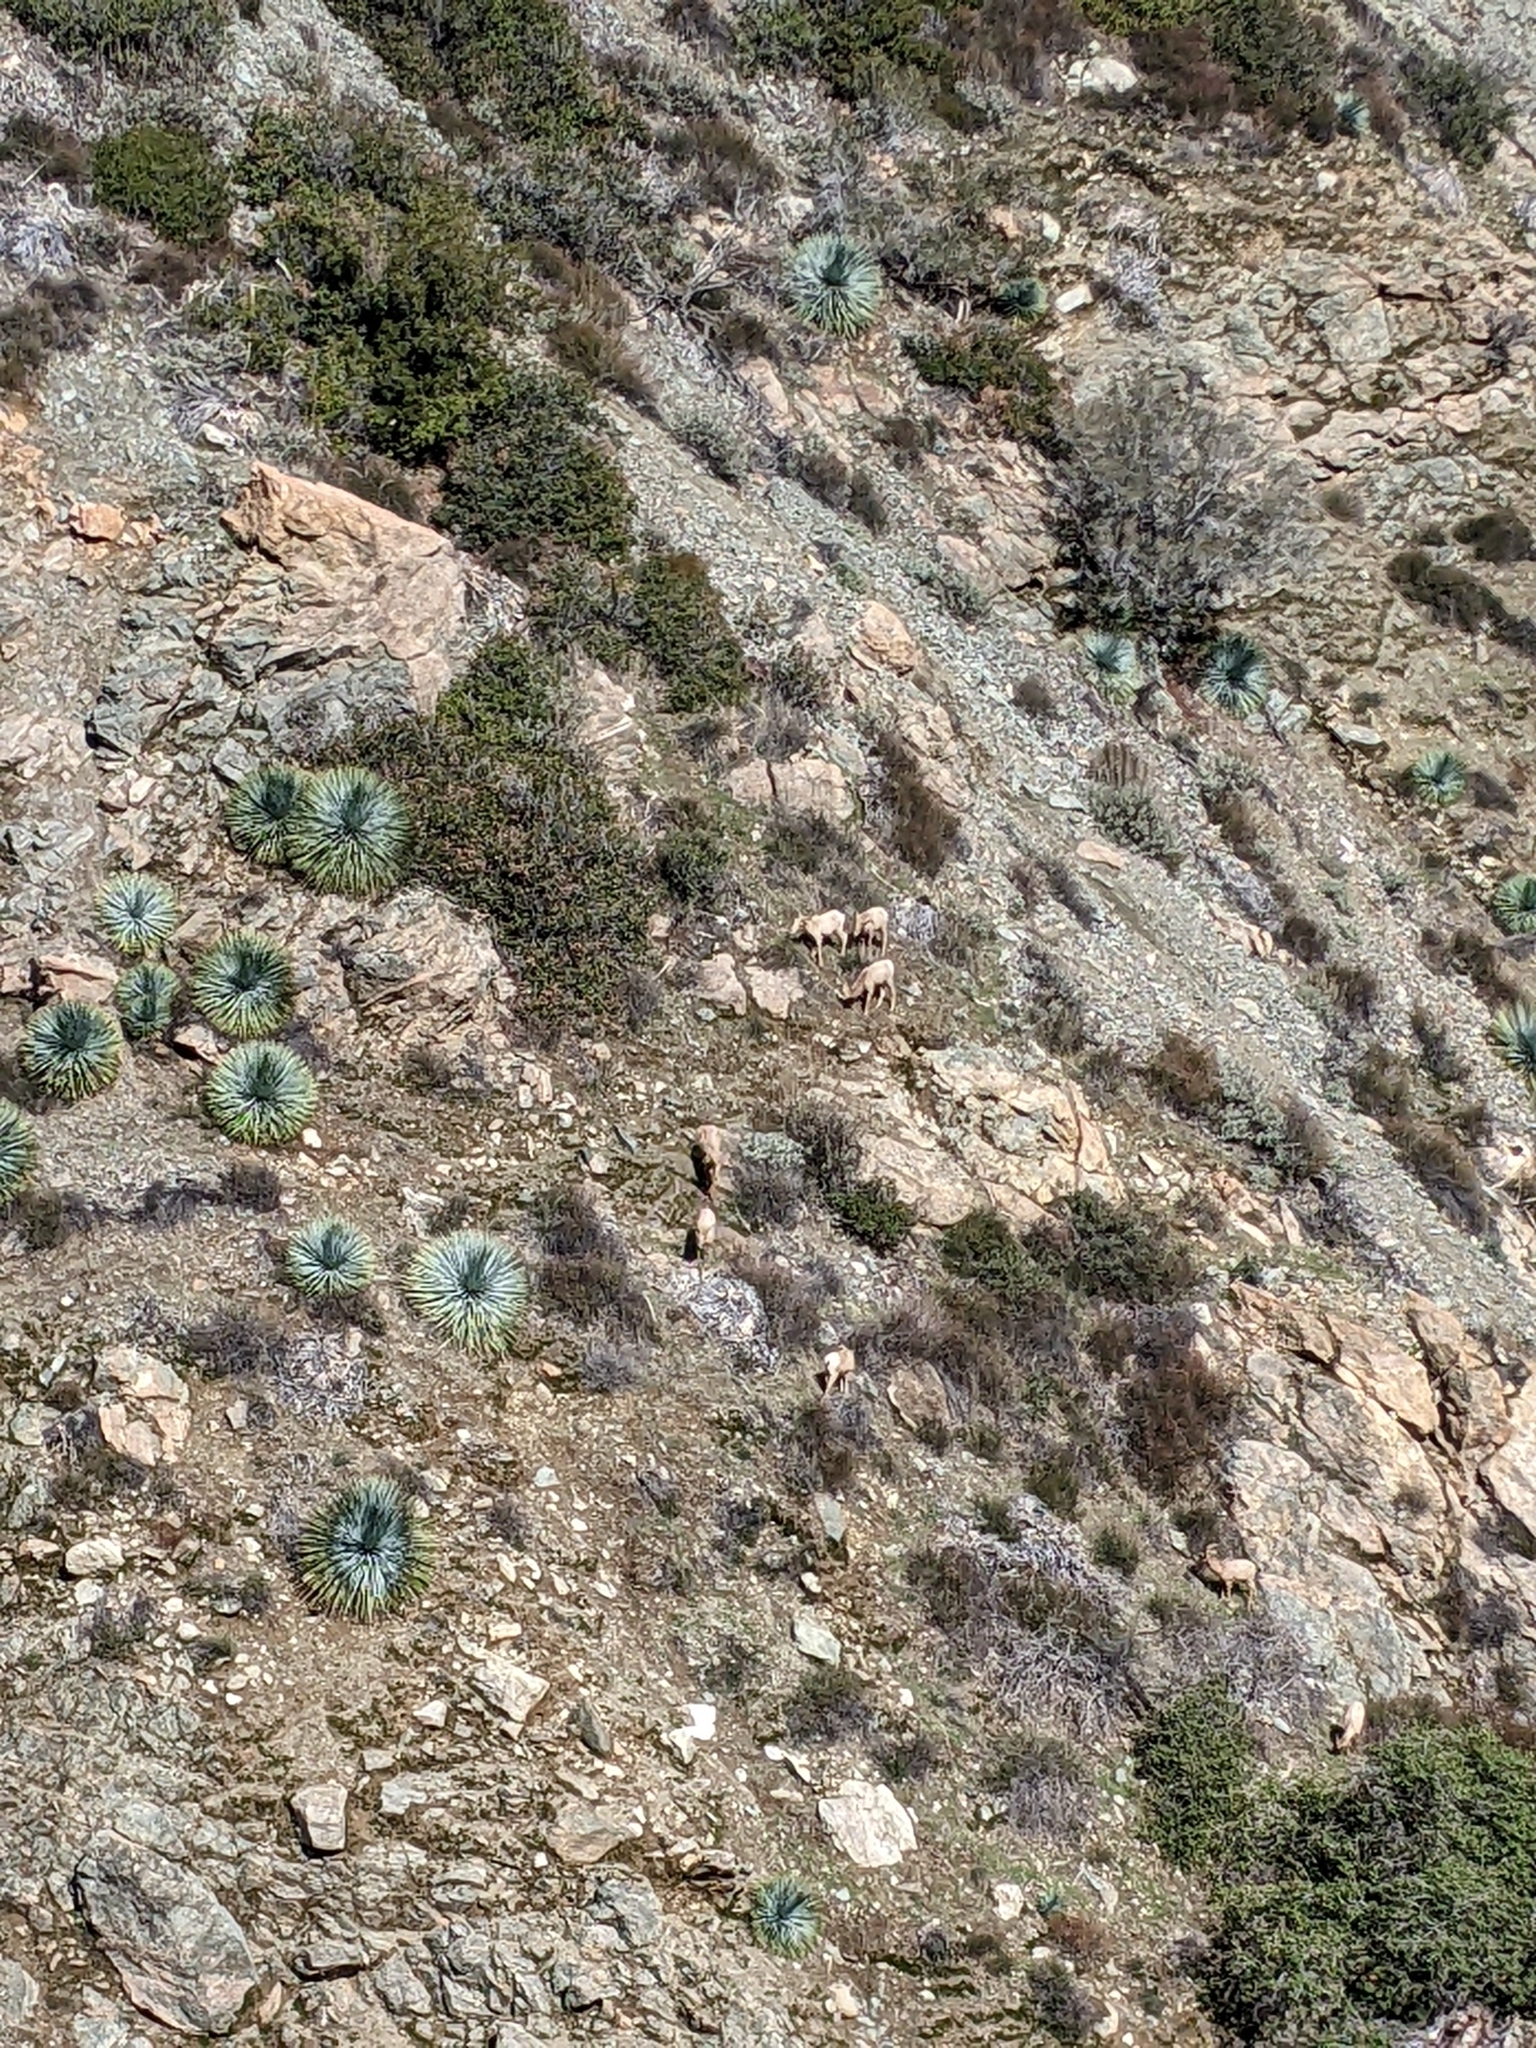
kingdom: Animalia
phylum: Chordata
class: Mammalia
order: Artiodactyla
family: Bovidae
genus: Ovis
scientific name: Ovis canadensis
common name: Bighorn sheep
